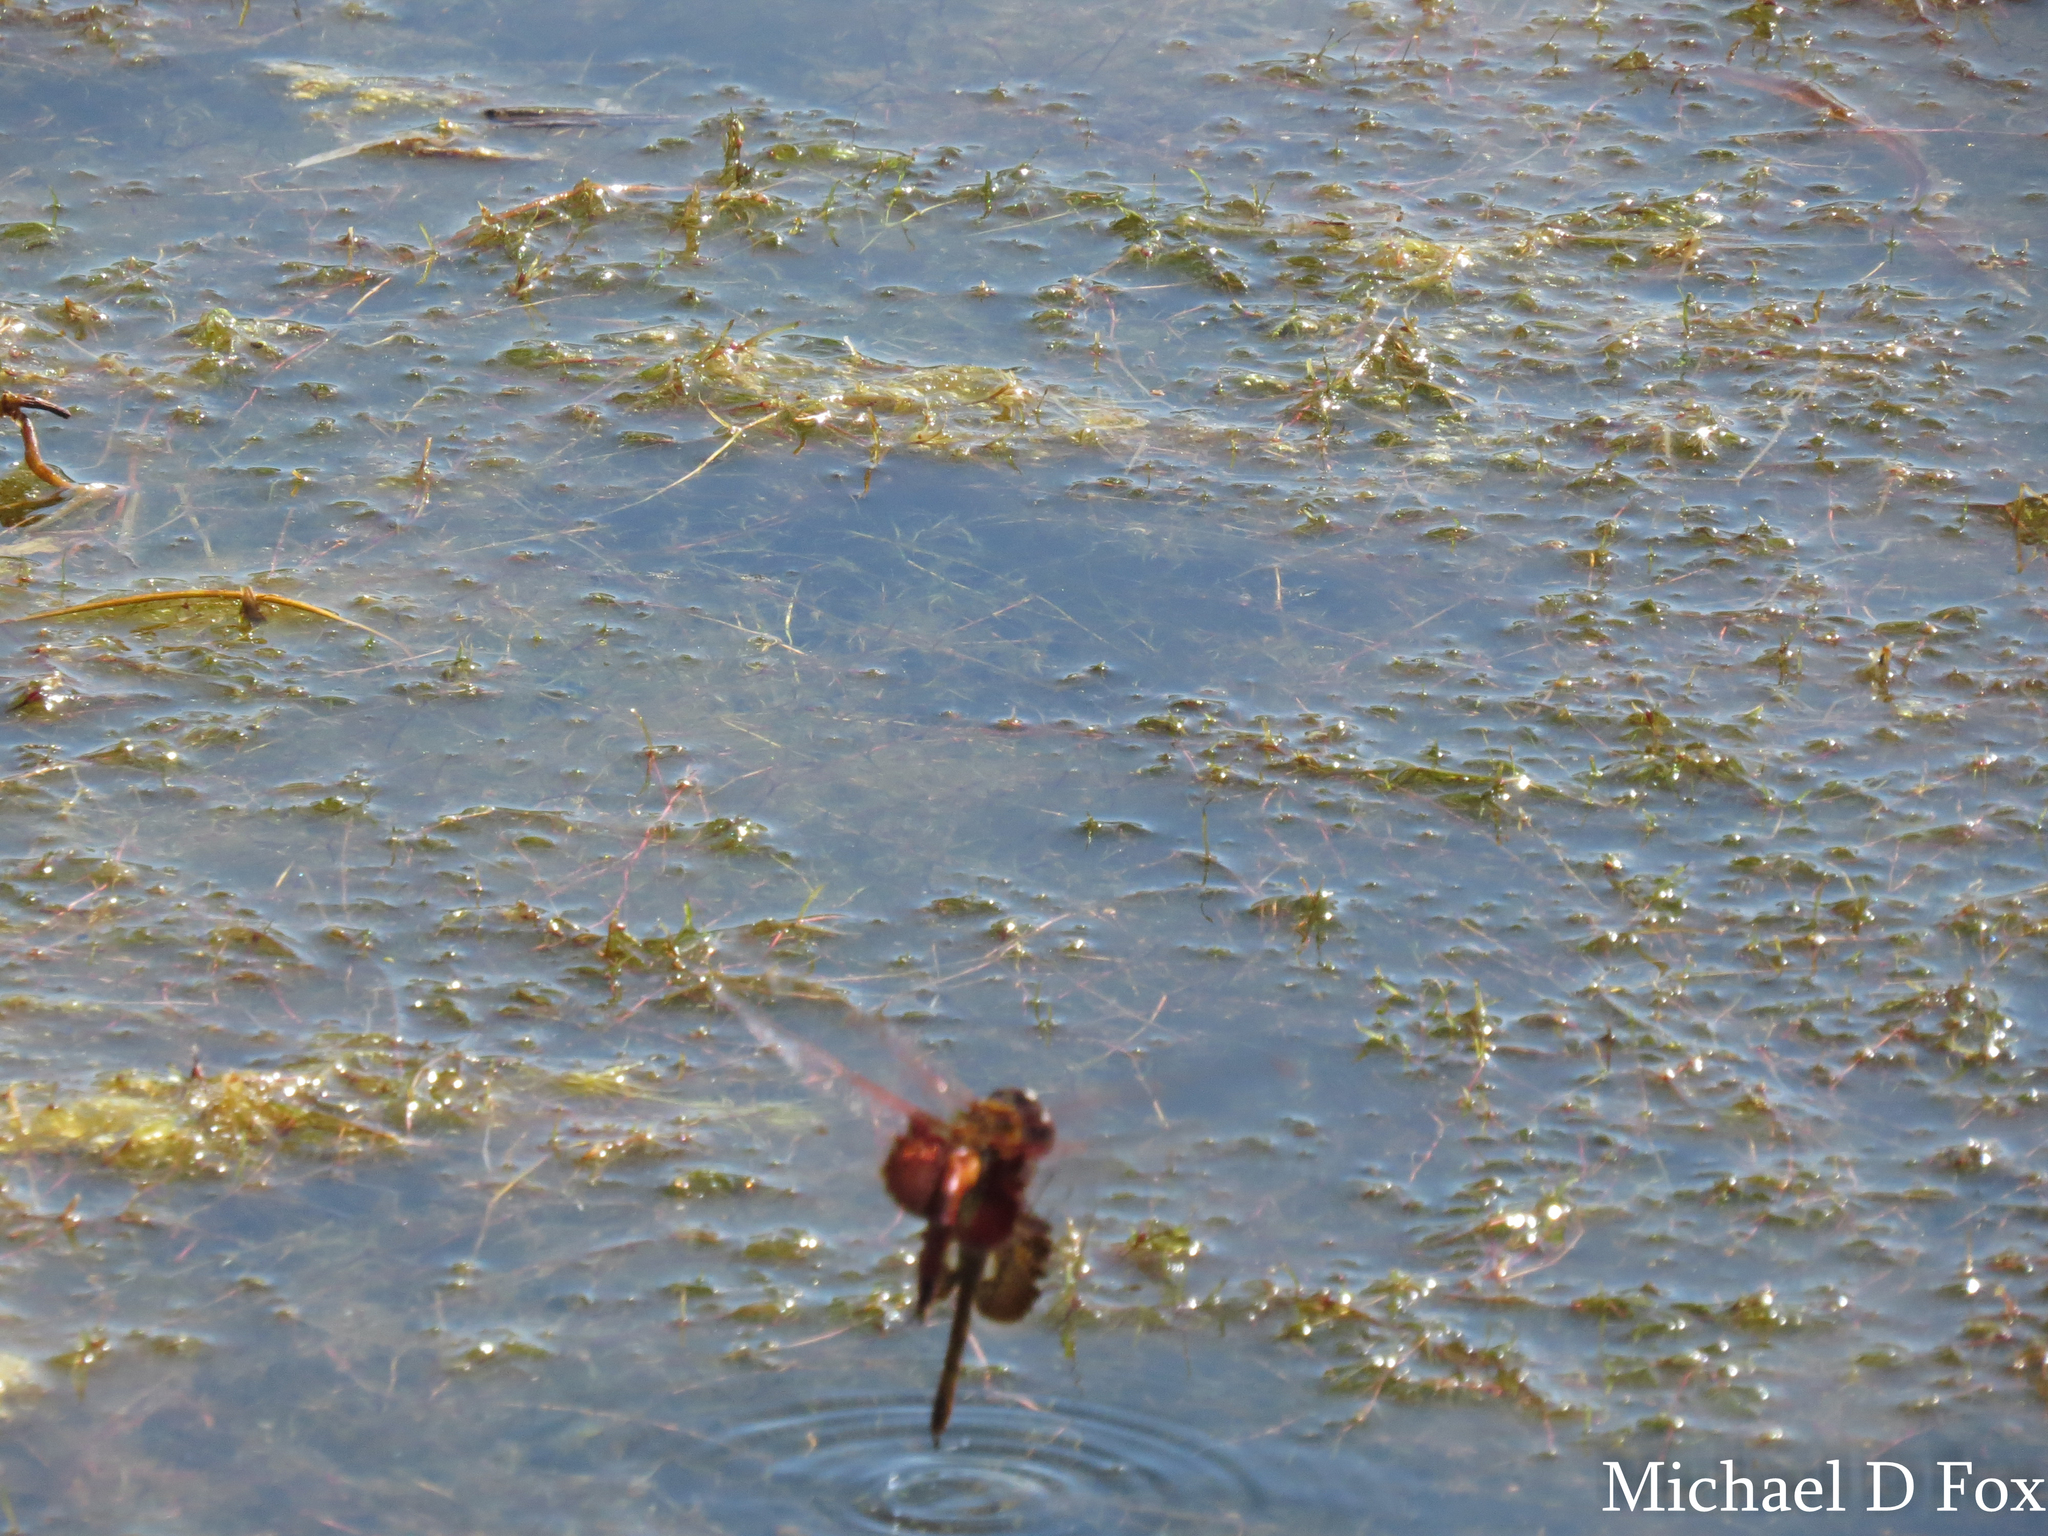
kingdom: Animalia
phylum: Arthropoda
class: Insecta
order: Odonata
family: Libellulidae
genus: Tramea
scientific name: Tramea onusta
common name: Red saddlebags
